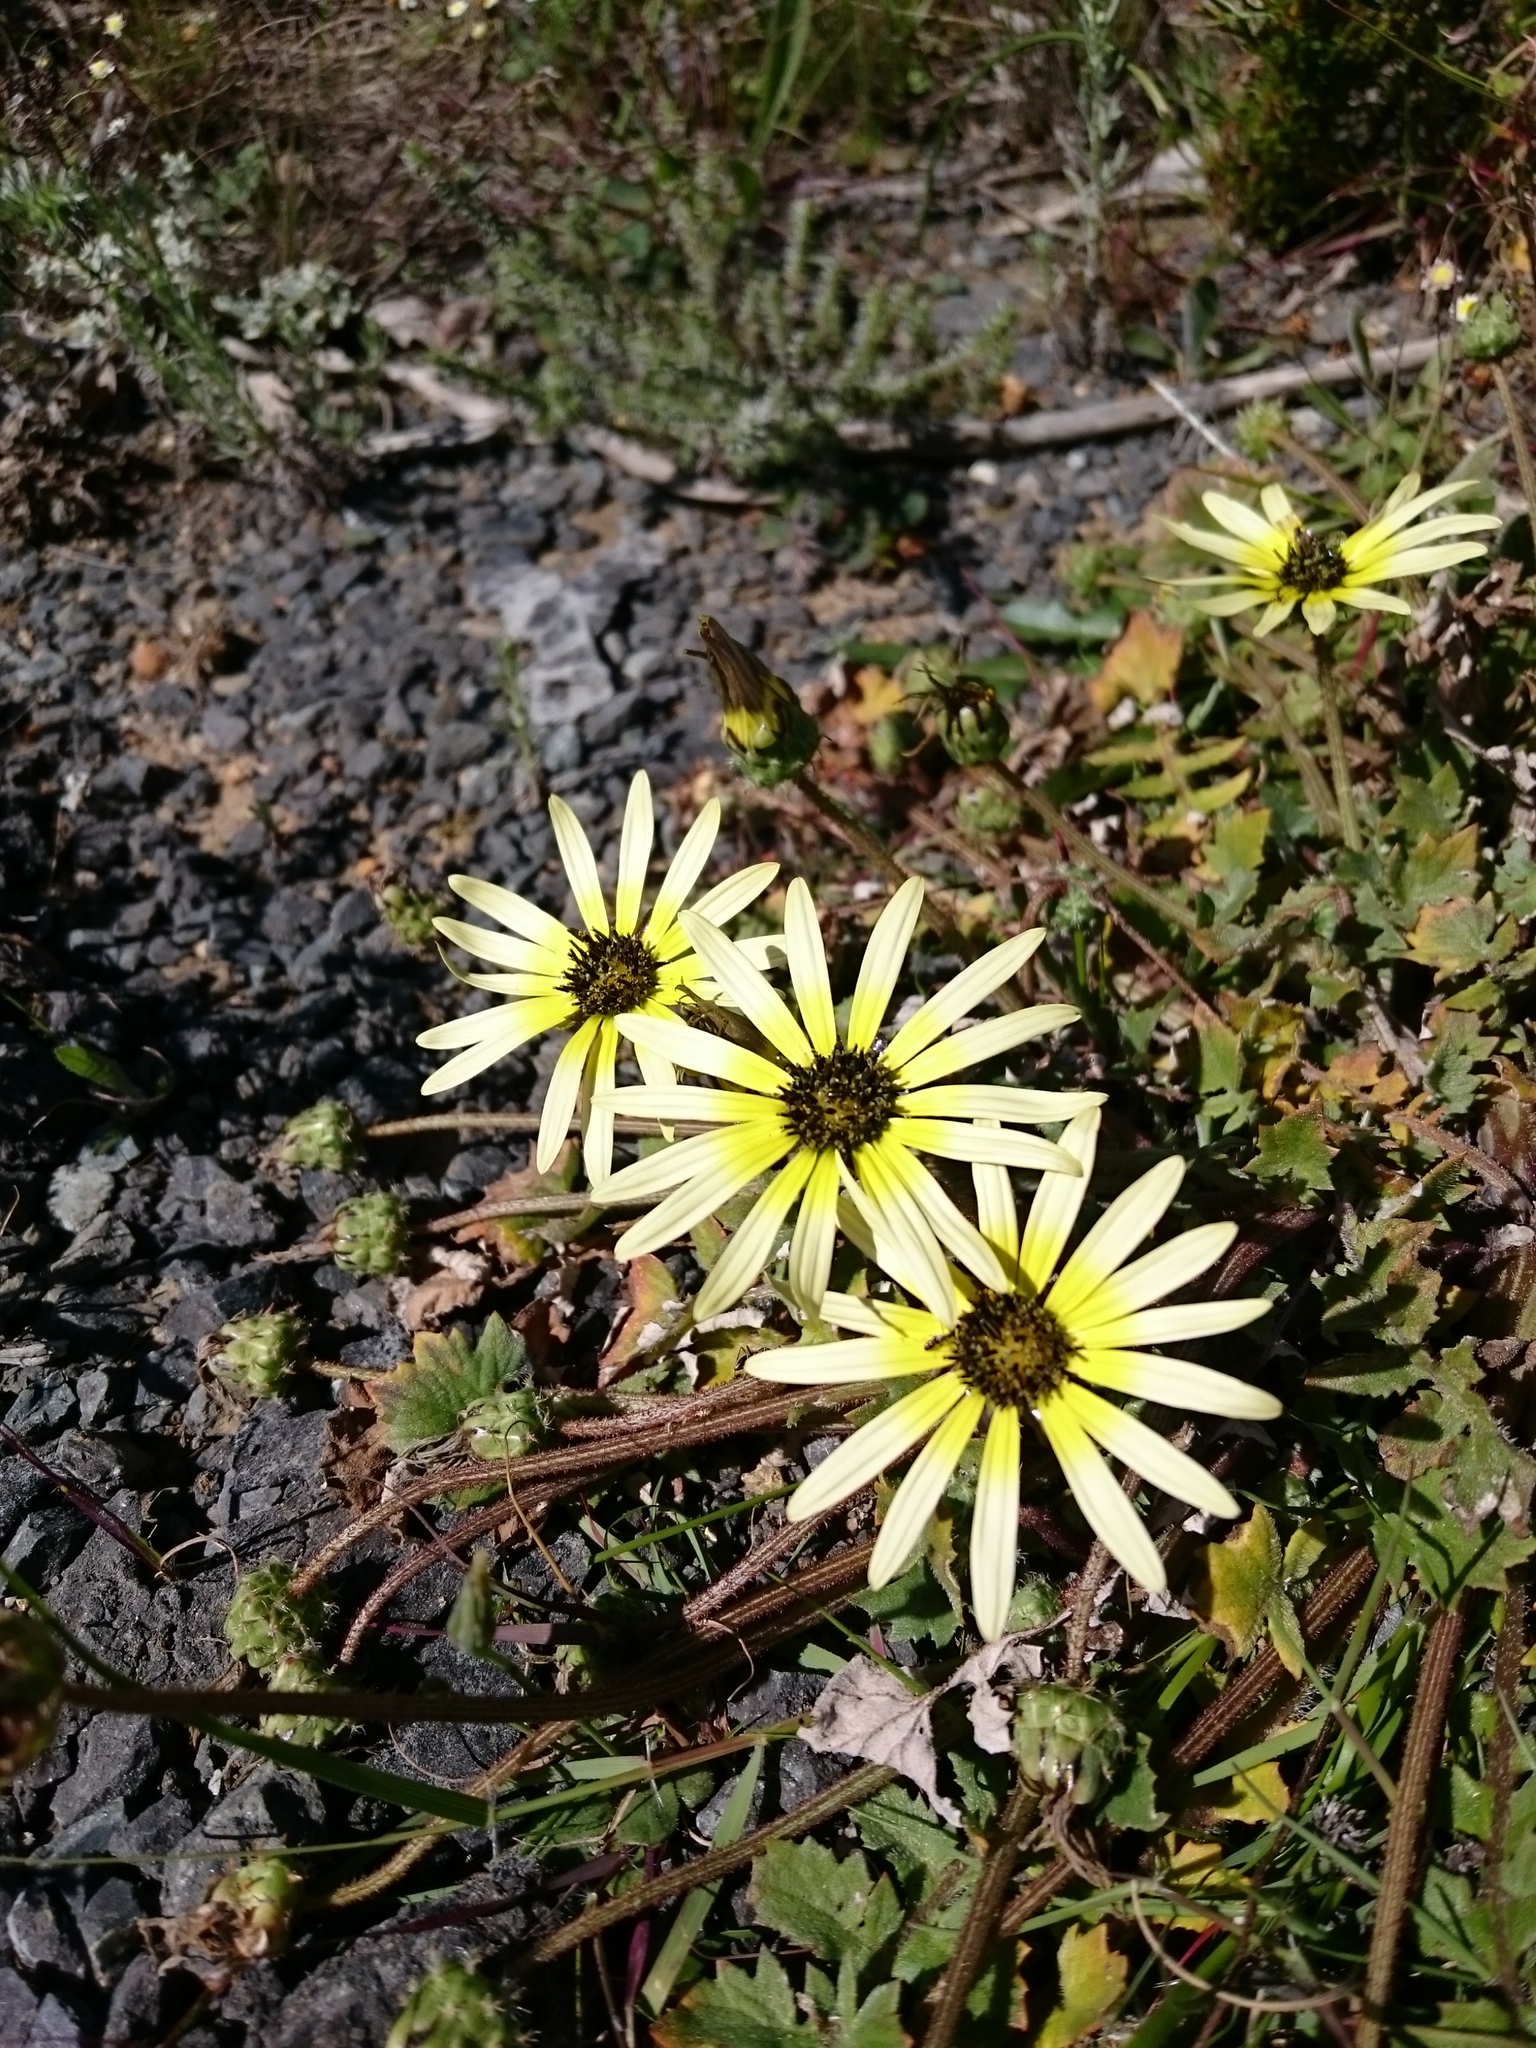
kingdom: Plantae
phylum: Tracheophyta
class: Magnoliopsida
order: Asterales
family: Asteraceae
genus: Arctotheca
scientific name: Arctotheca calendula
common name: Capeweed
